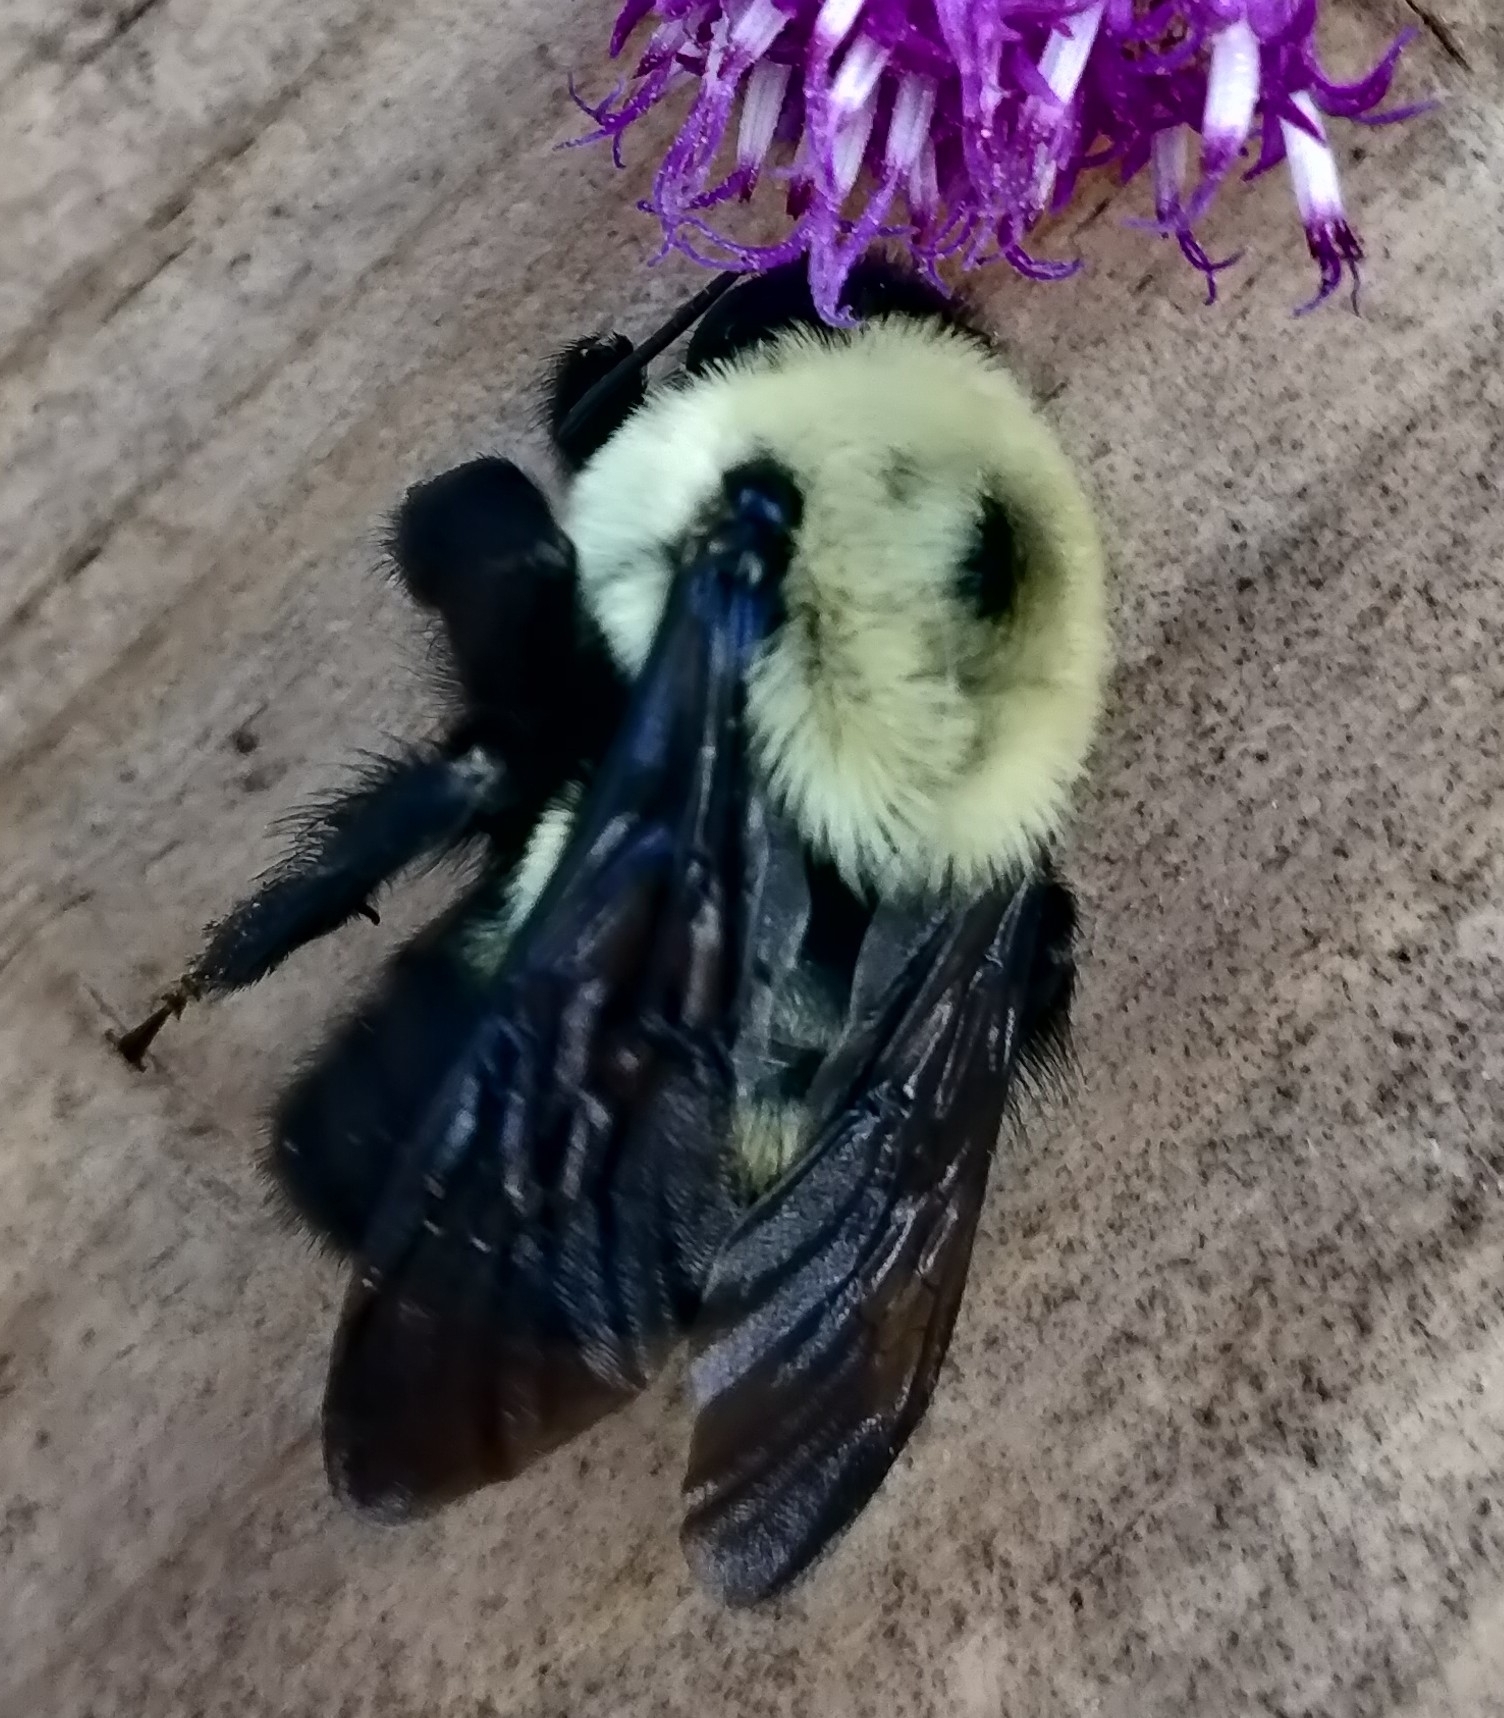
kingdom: Animalia
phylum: Arthropoda
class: Insecta
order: Hymenoptera
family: Apidae
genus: Bombus
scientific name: Bombus griseocollis
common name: Brown-belted bumble bee
